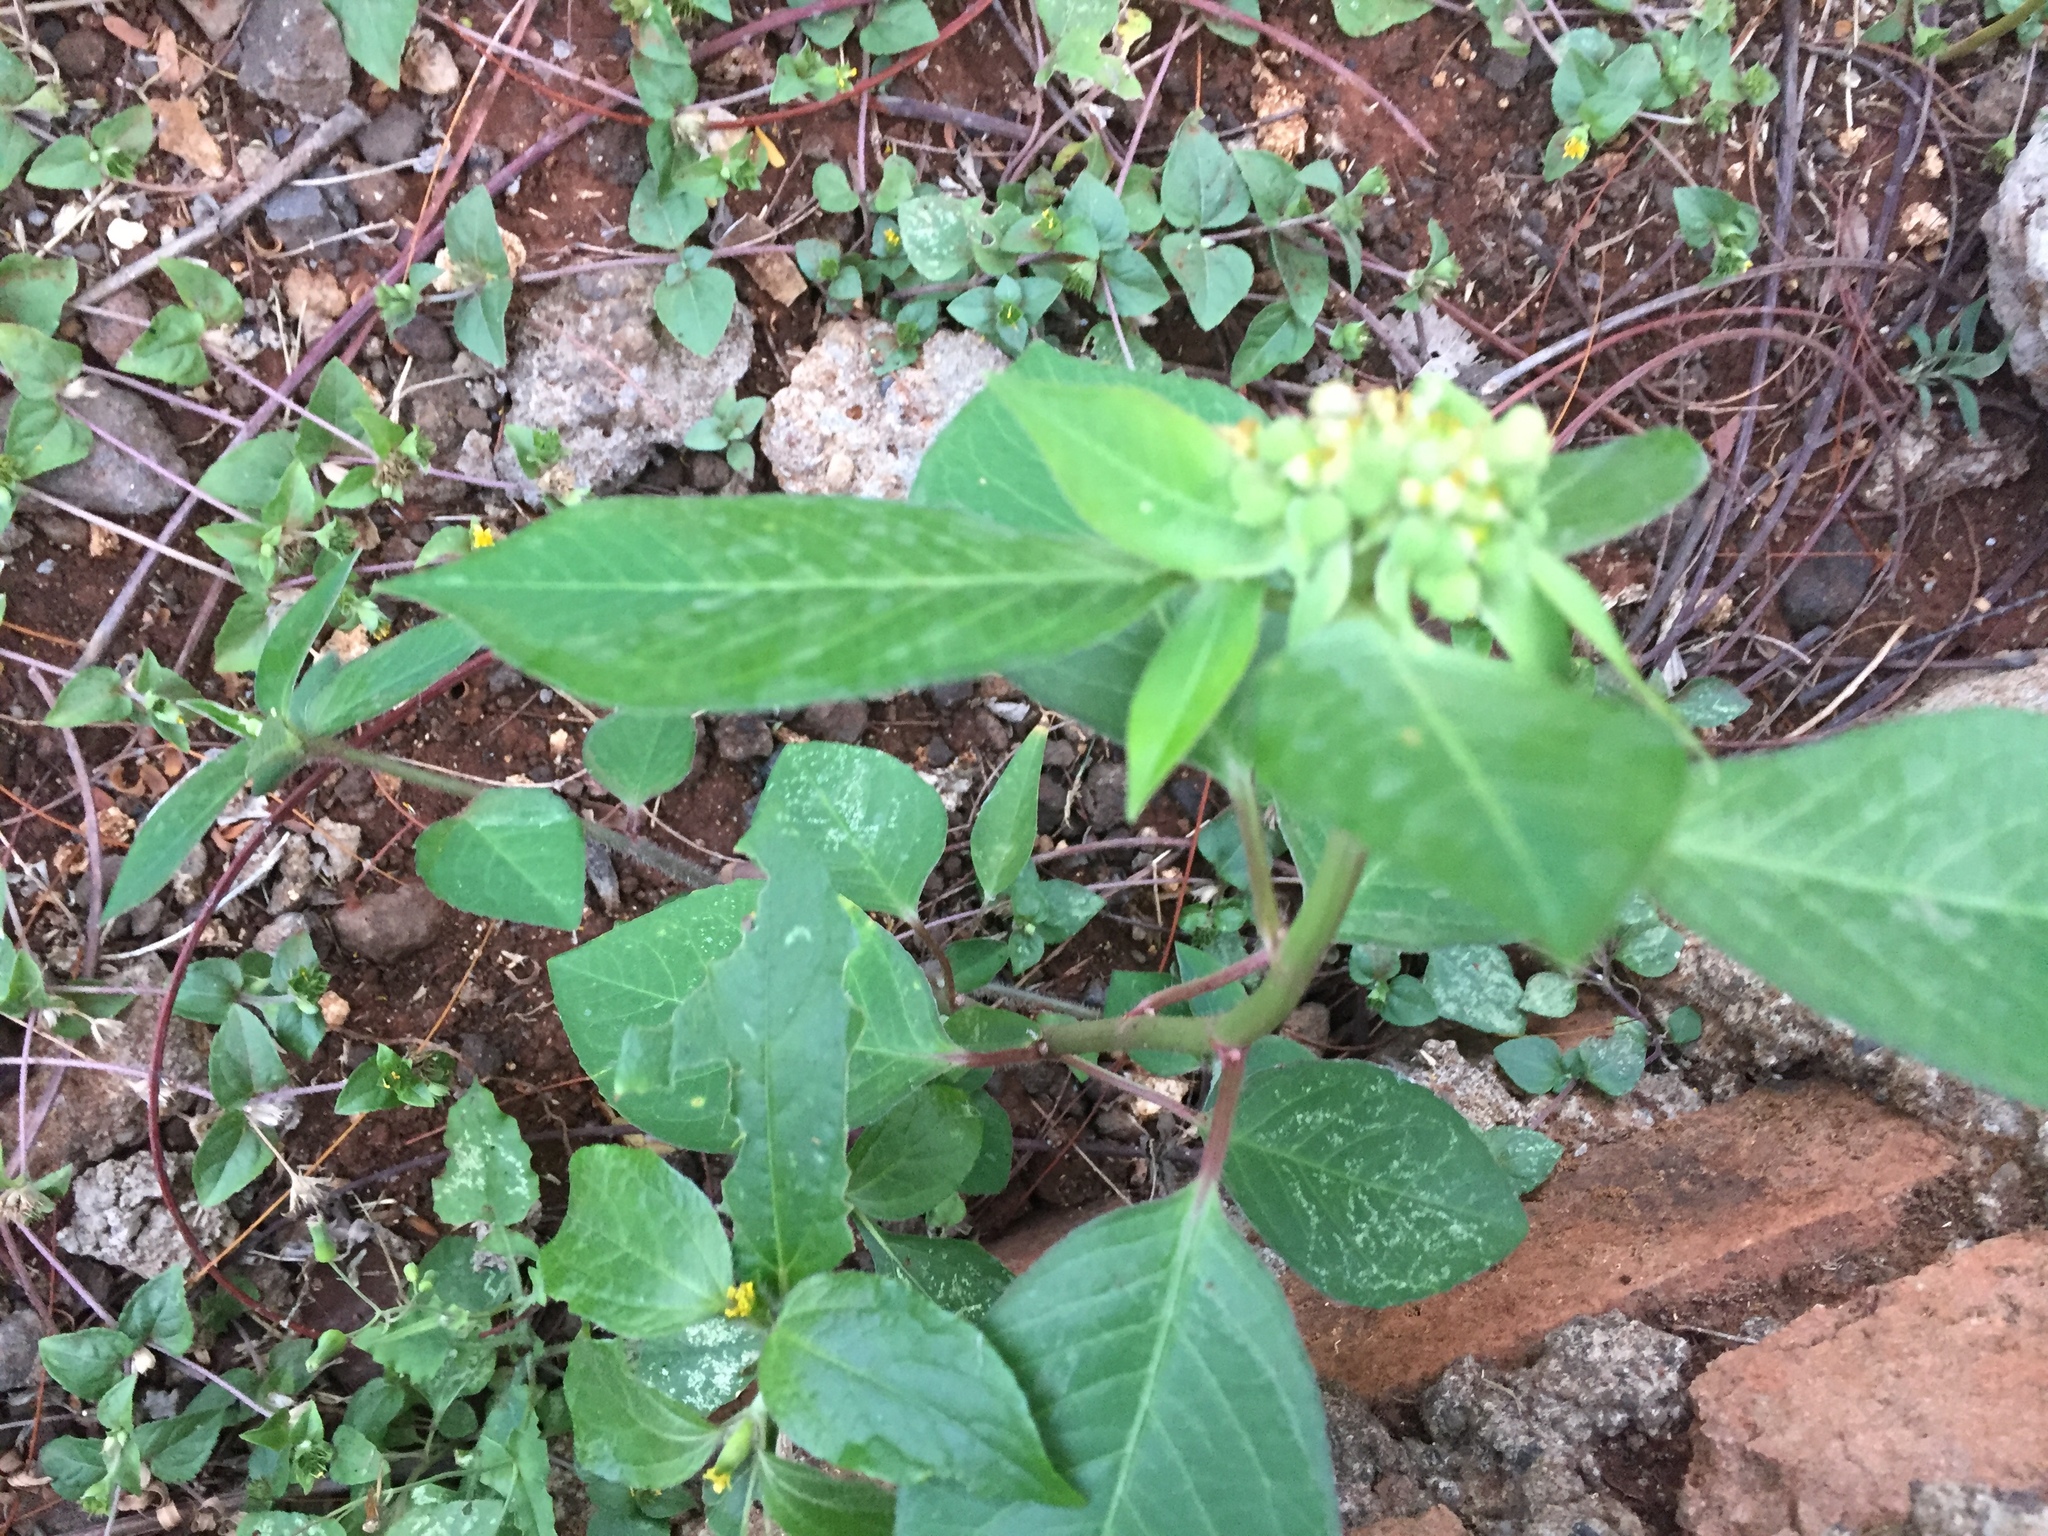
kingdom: Plantae
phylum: Tracheophyta
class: Magnoliopsida
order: Malpighiales
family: Euphorbiaceae
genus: Euphorbia
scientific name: Euphorbia heterophylla
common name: Mexican fireplant
